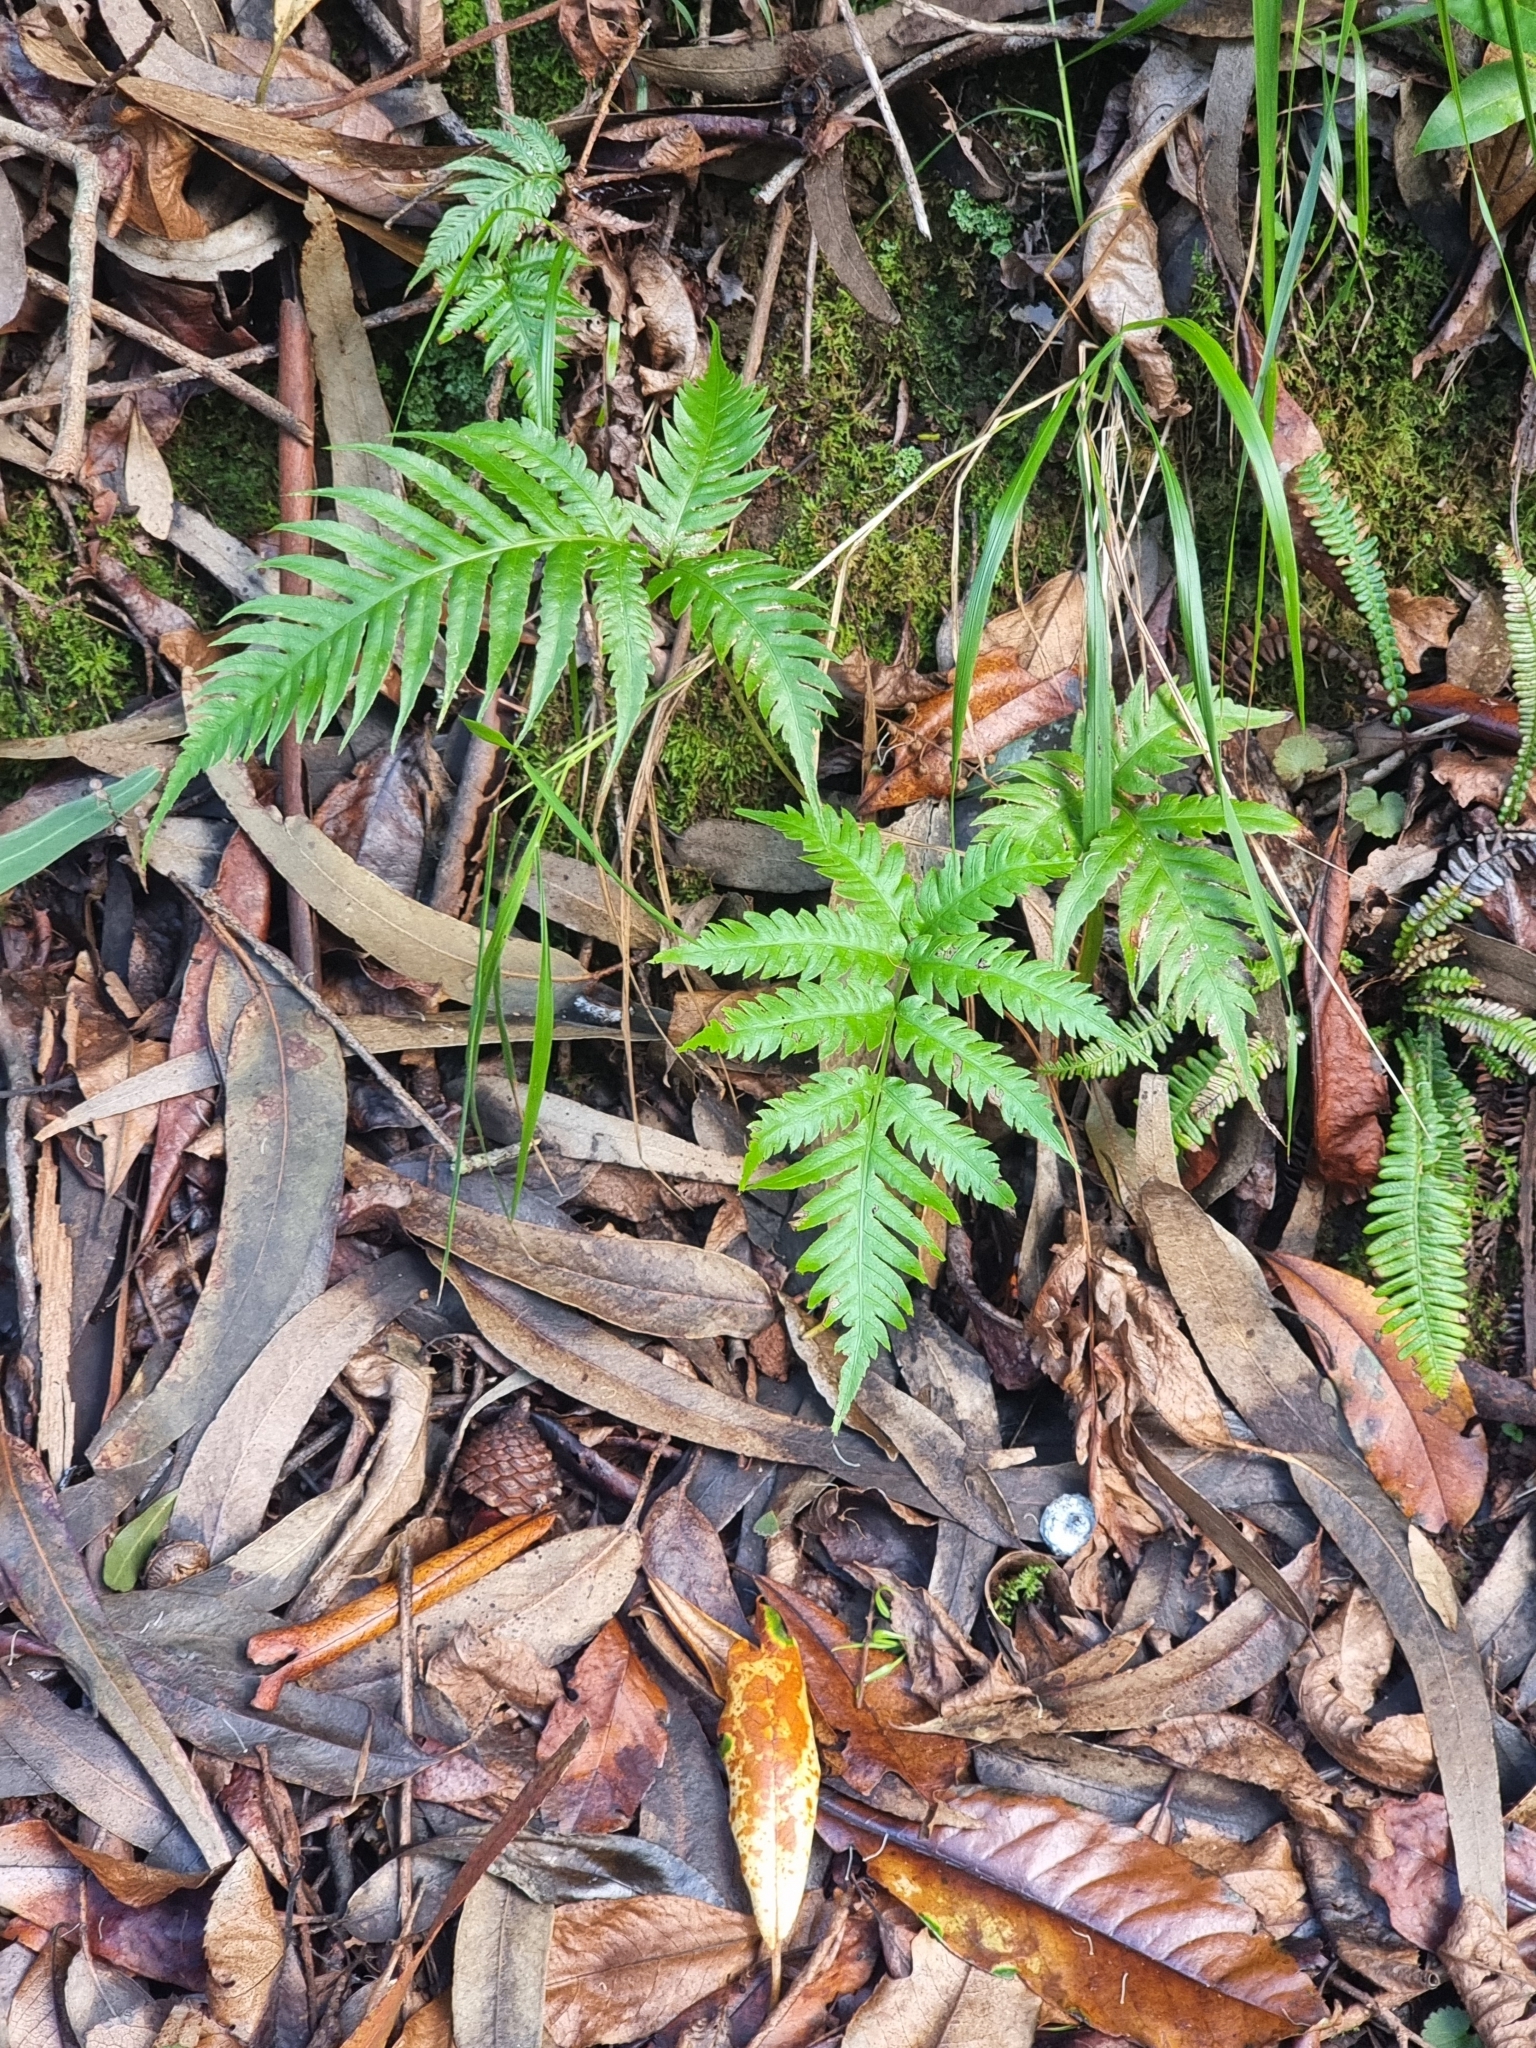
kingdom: Plantae
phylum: Tracheophyta
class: Polypodiopsida
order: Polypodiales
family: Pteridaceae
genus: Pteris
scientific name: Pteris incompleta
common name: Laurisilva brake
